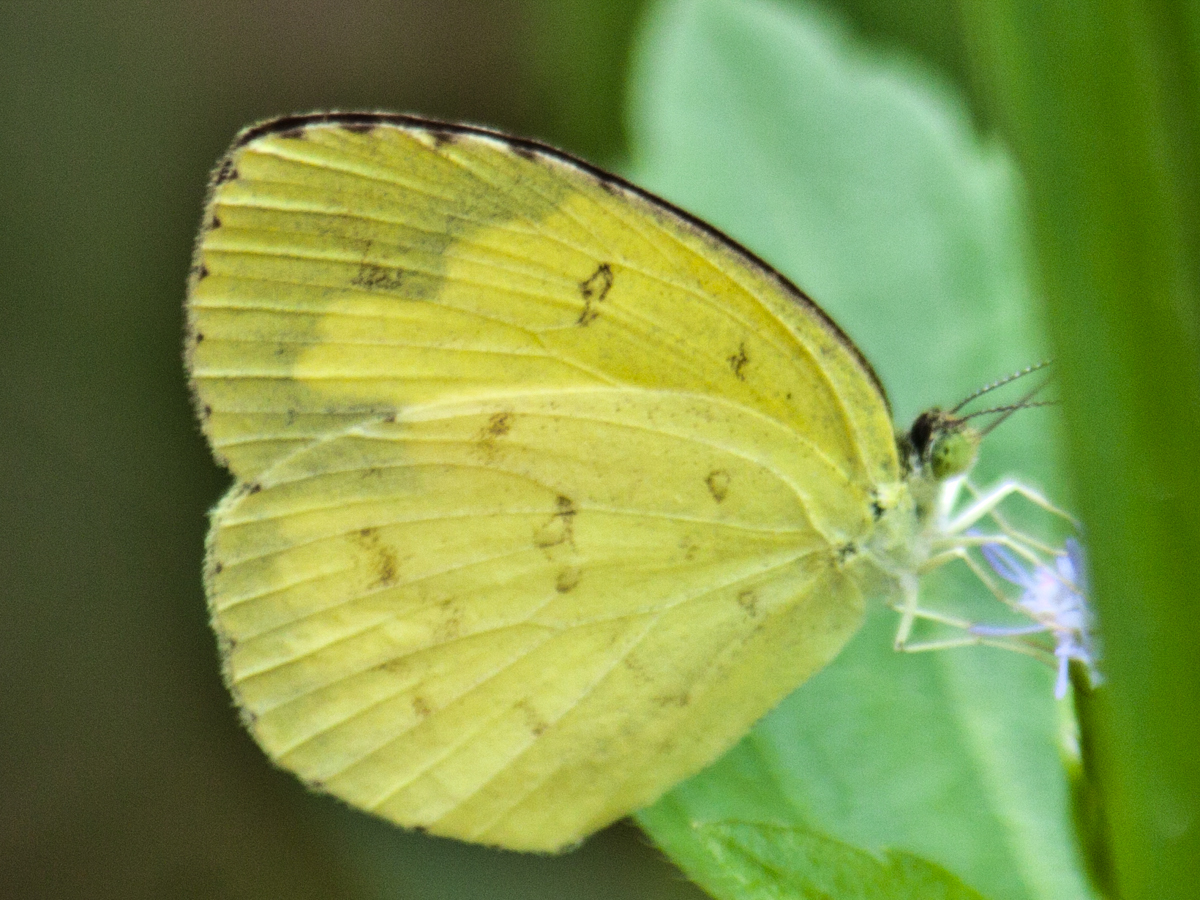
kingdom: Animalia
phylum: Arthropoda
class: Insecta
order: Lepidoptera
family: Pieridae
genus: Eurema
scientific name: Eurema hecabe
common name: Pale grass yellow
